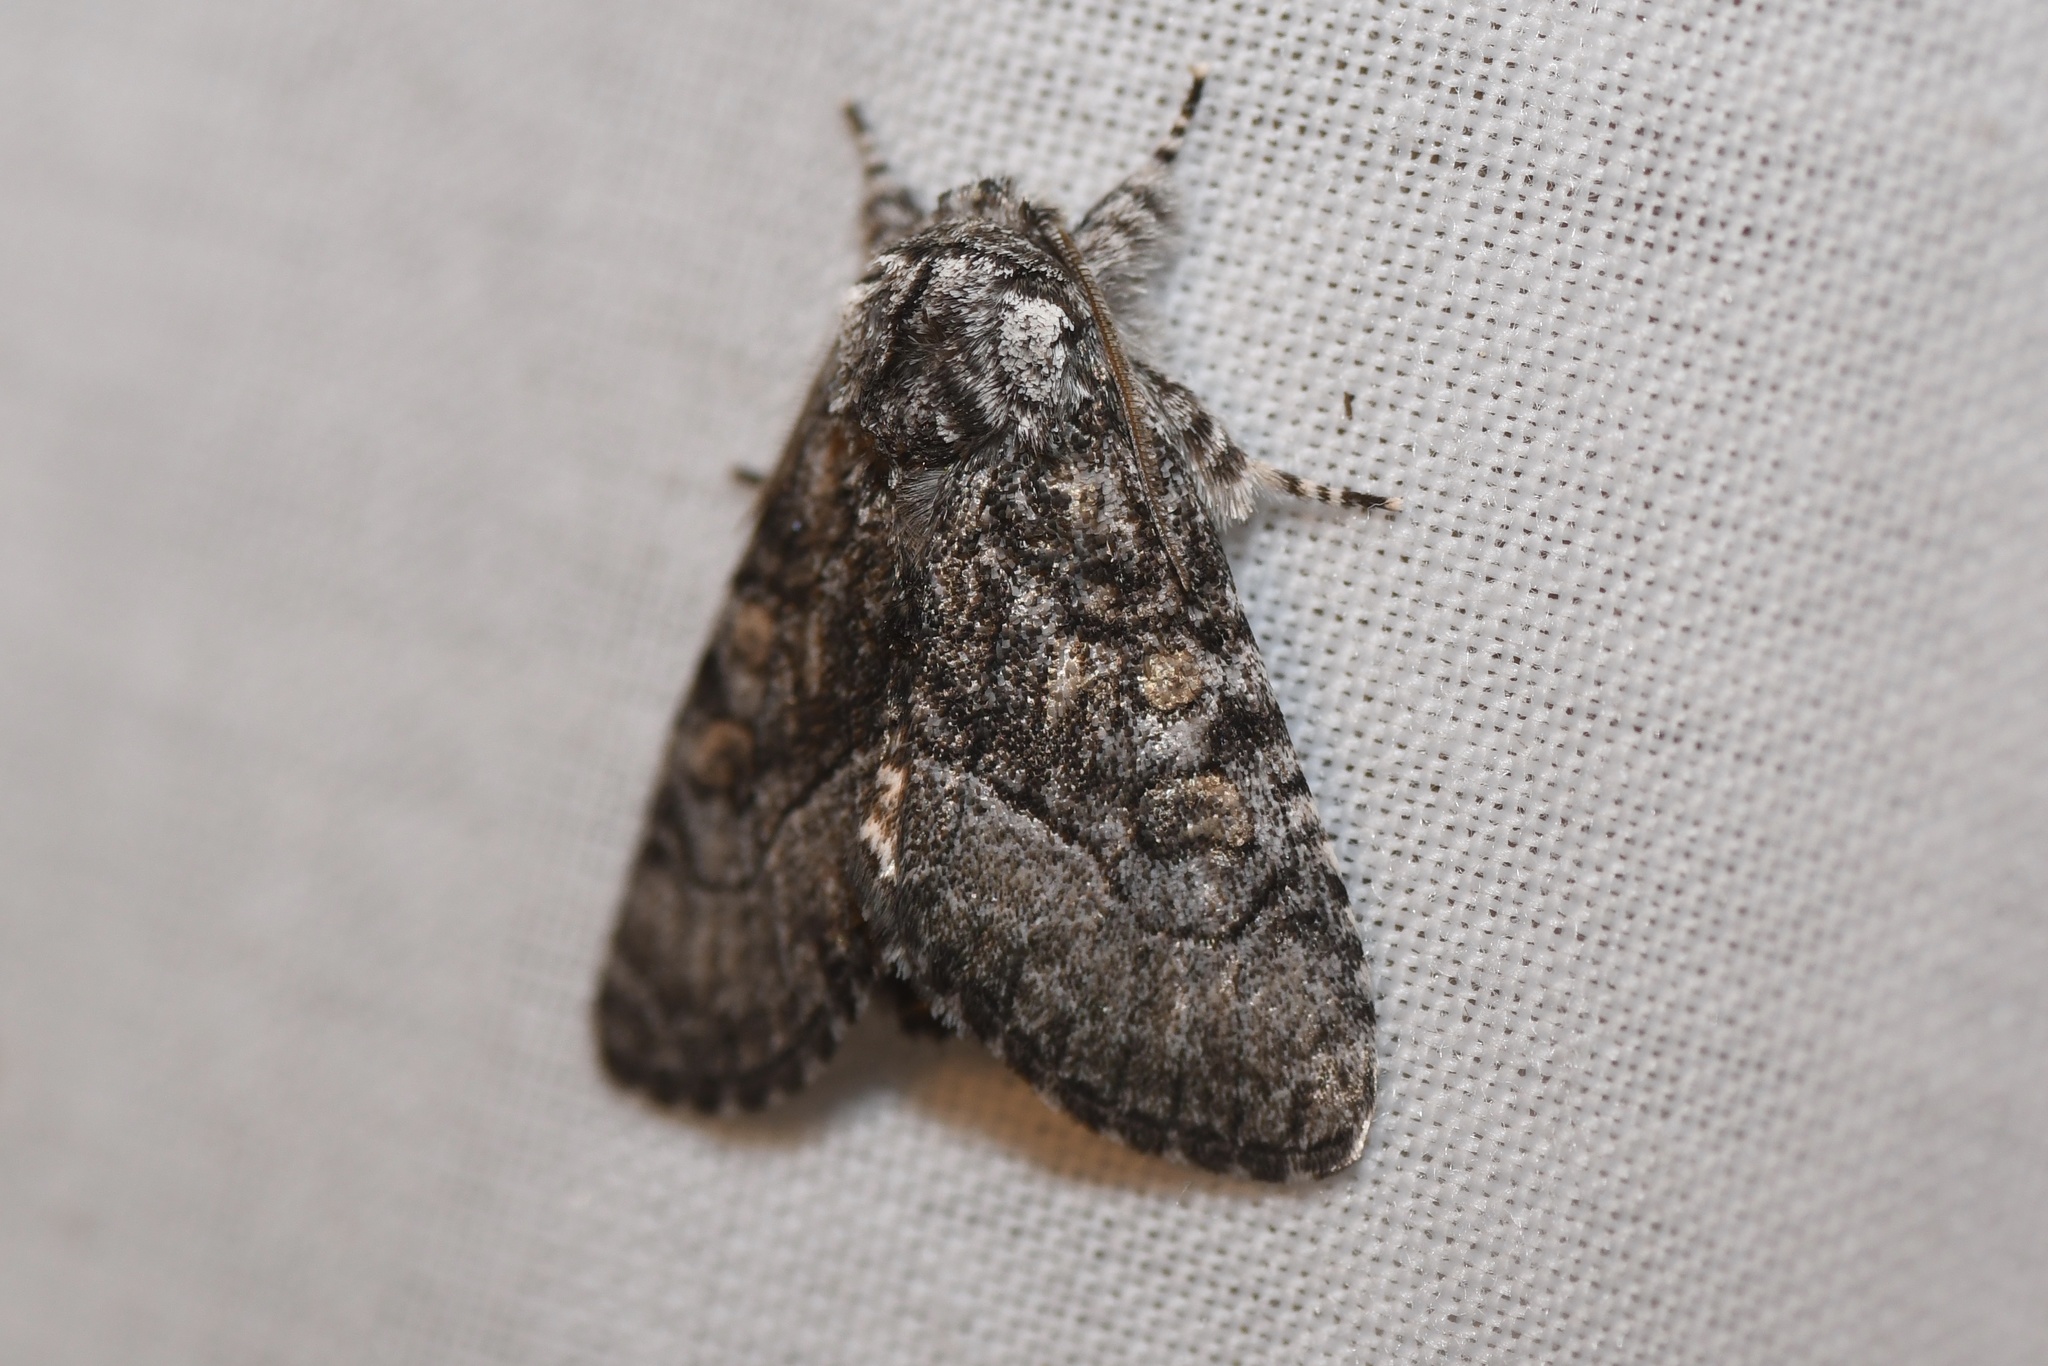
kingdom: Animalia
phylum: Arthropoda
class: Insecta
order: Lepidoptera
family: Noctuidae
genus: Raphia
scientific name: Raphia frater
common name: Brother
